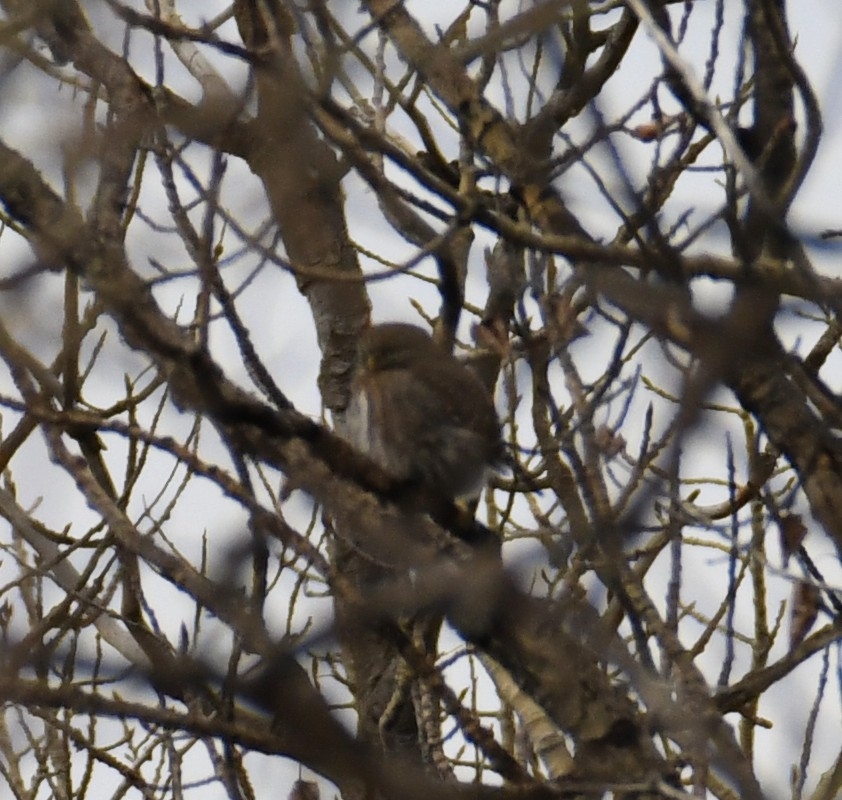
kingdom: Animalia
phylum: Chordata
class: Aves
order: Strigiformes
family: Strigidae
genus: Glaucidium
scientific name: Glaucidium gnoma
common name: Northern pygmy-owl
